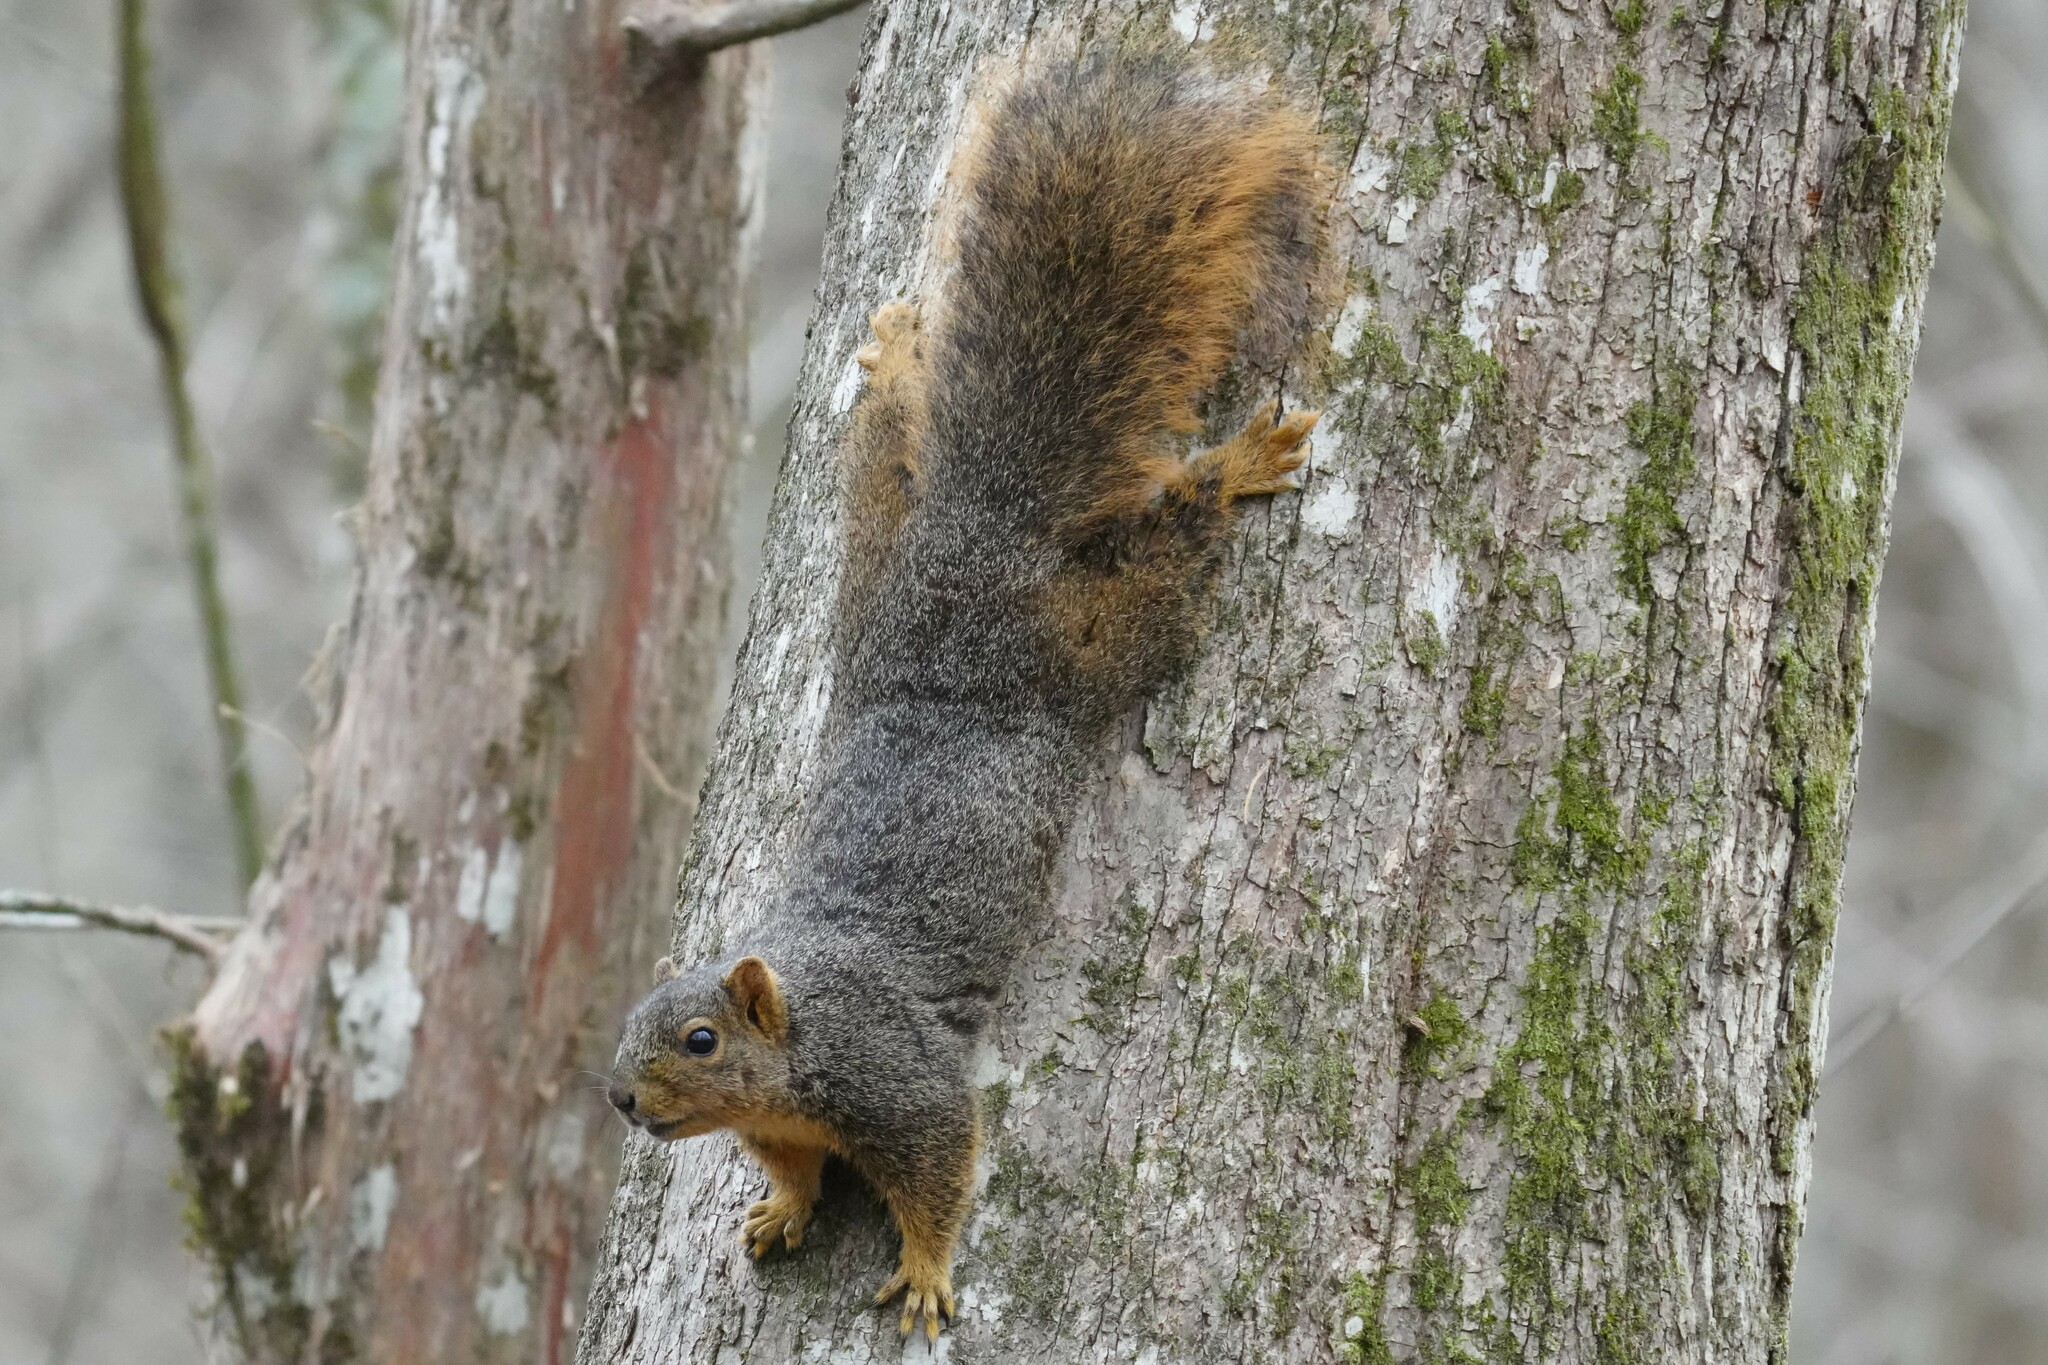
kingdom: Animalia
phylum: Chordata
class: Mammalia
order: Rodentia
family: Sciuridae
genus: Sciurus
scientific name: Sciurus niger
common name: Fox squirrel
